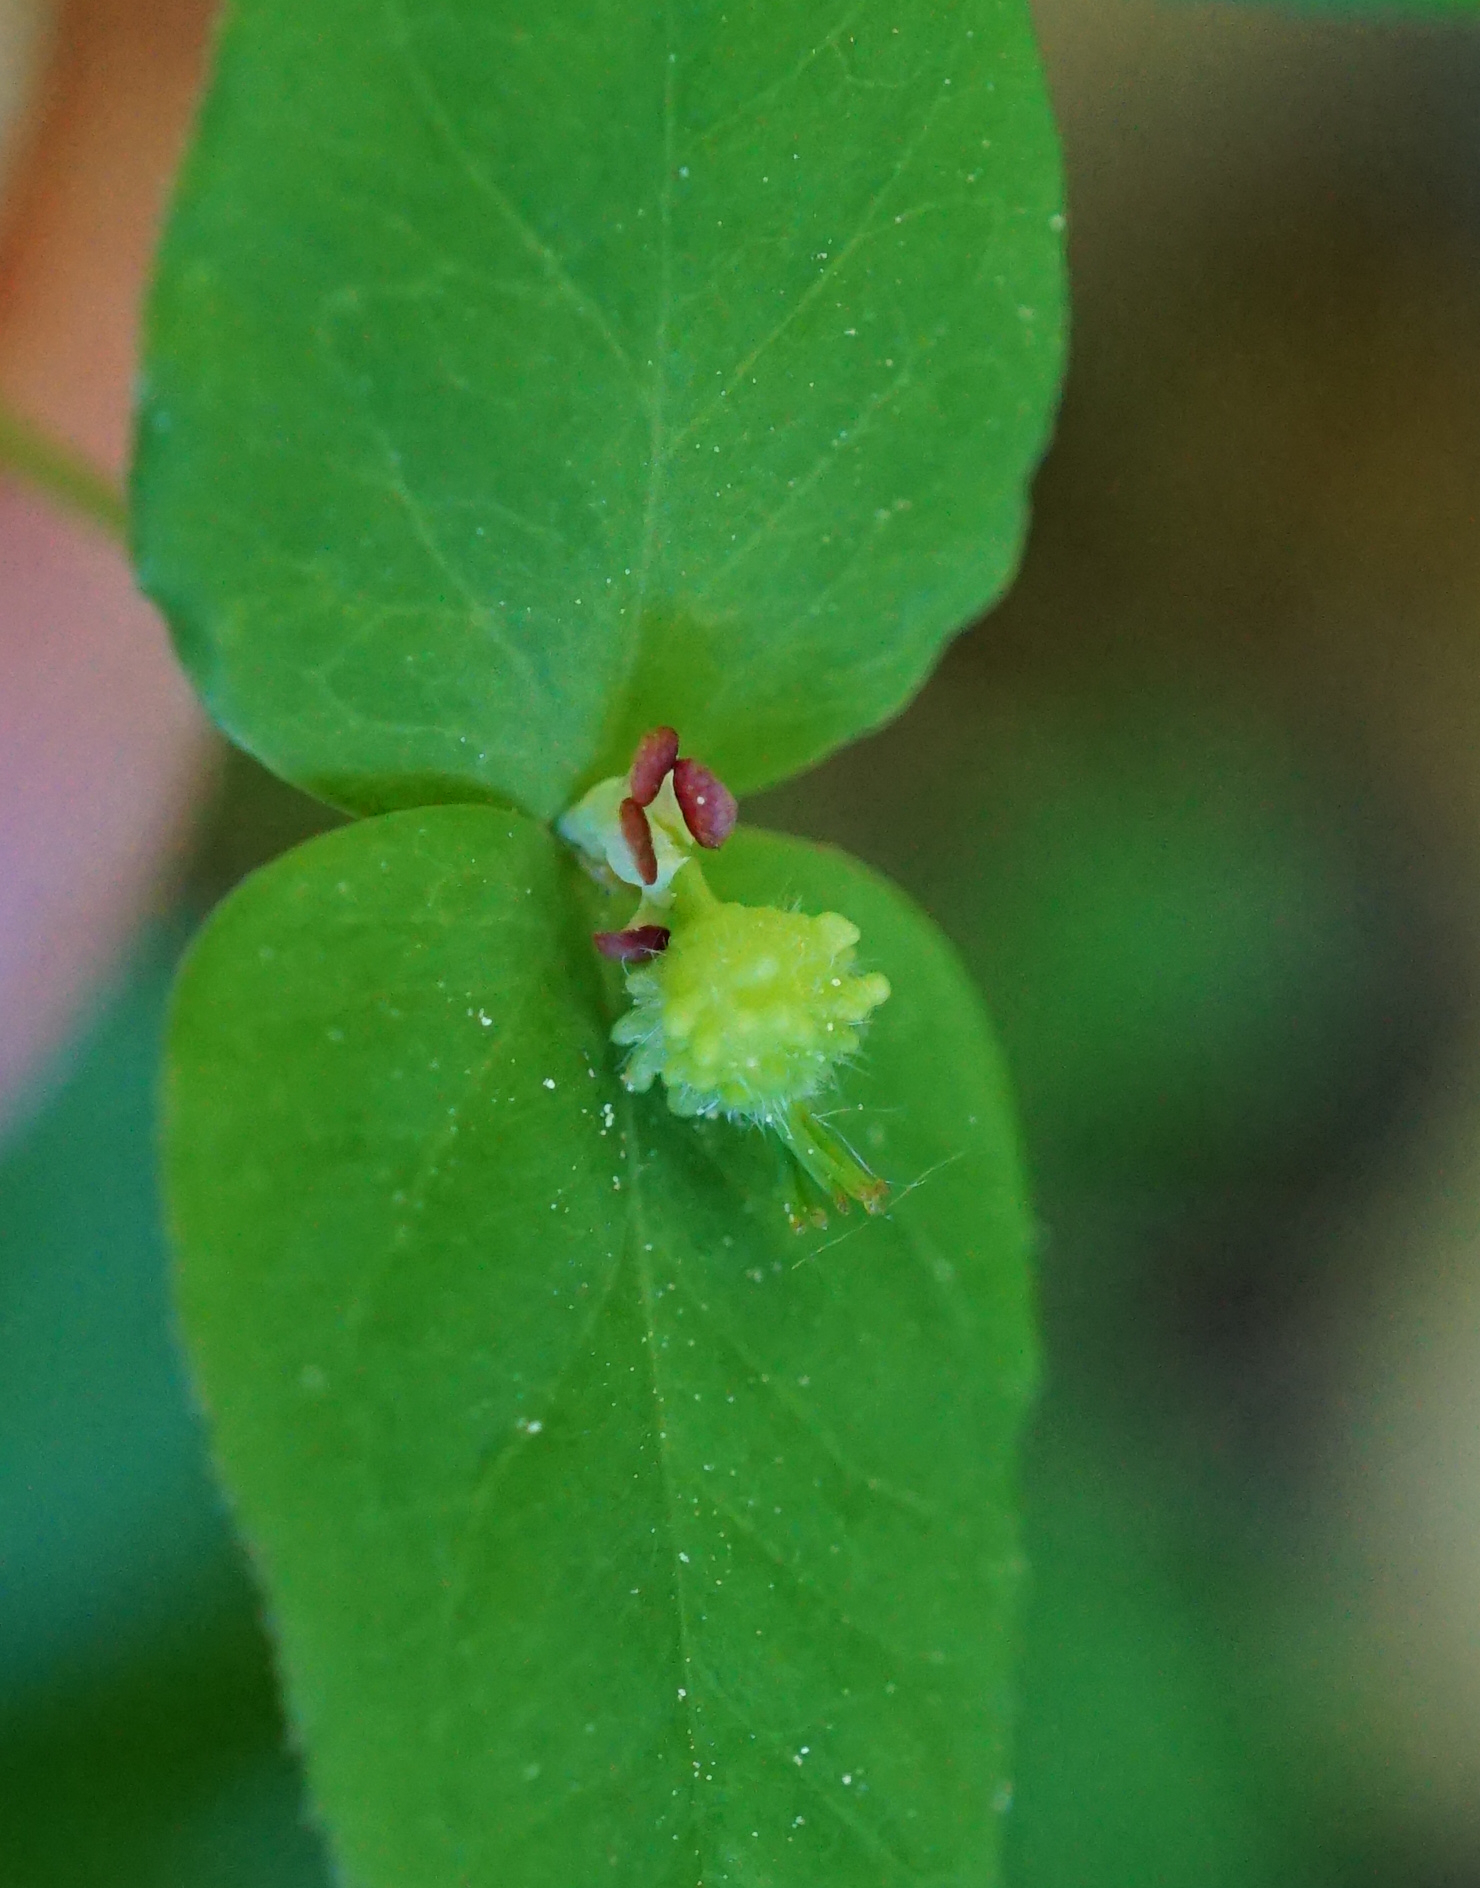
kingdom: Plantae
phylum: Tracheophyta
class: Magnoliopsida
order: Malpighiales
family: Euphorbiaceae
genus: Euphorbia
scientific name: Euphorbia dulcis
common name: Sweet spurge
